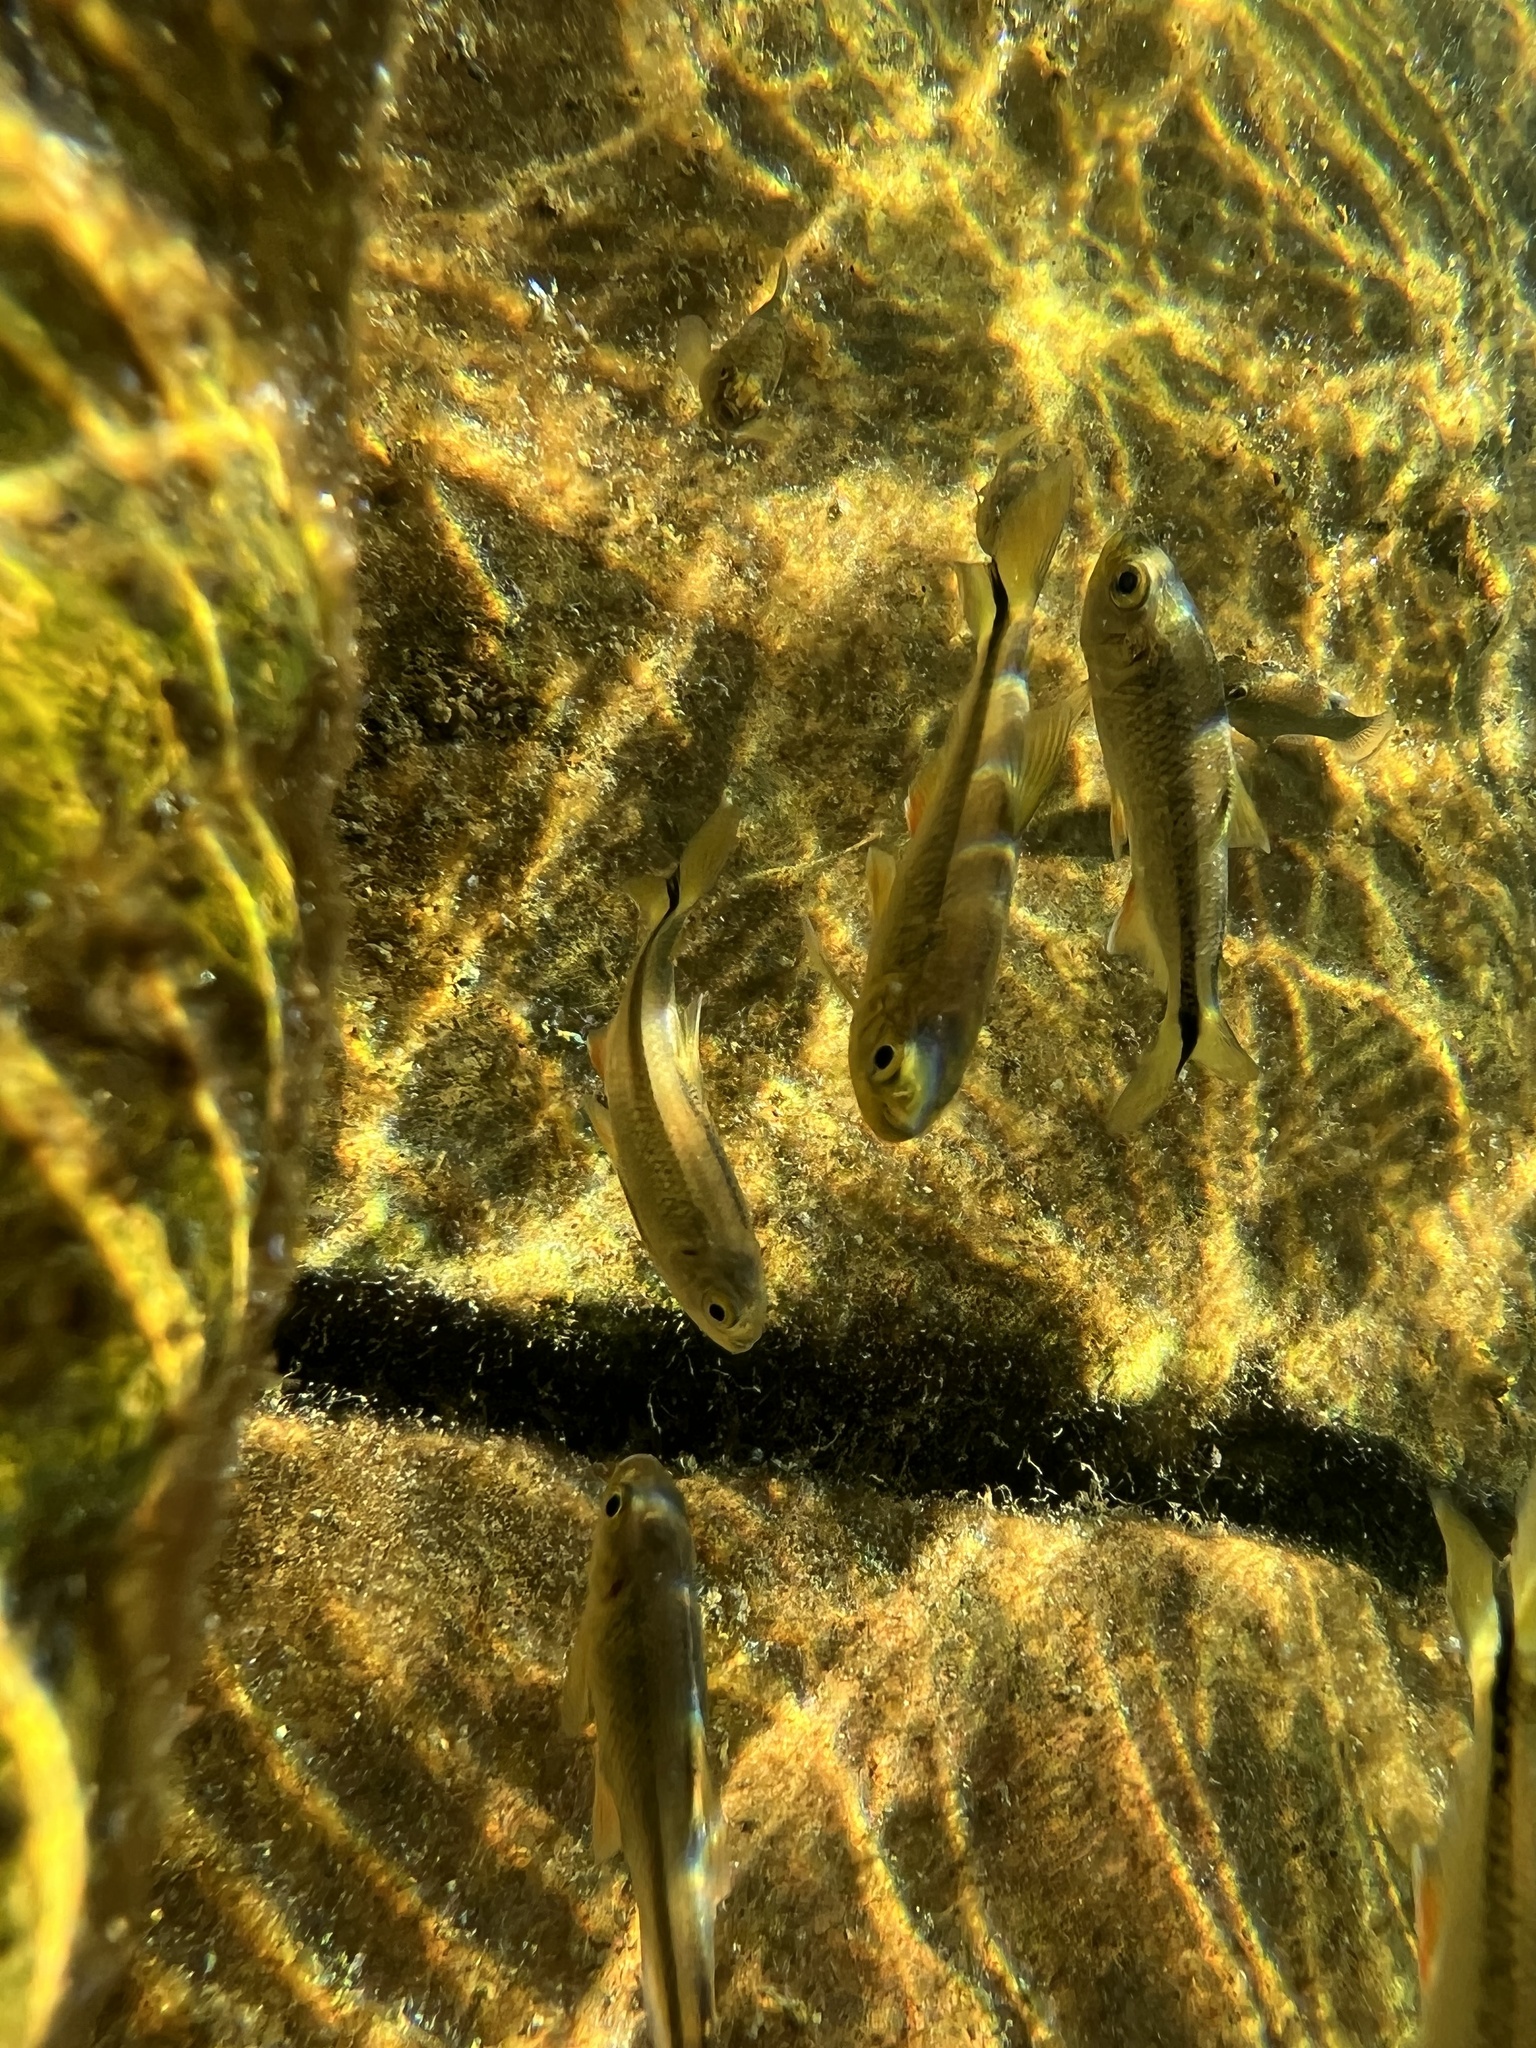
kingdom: Animalia
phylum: Chordata
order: Characiformes
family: Characidae
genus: Astyanax
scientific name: Astyanax mexicanus
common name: Mexican tetra
